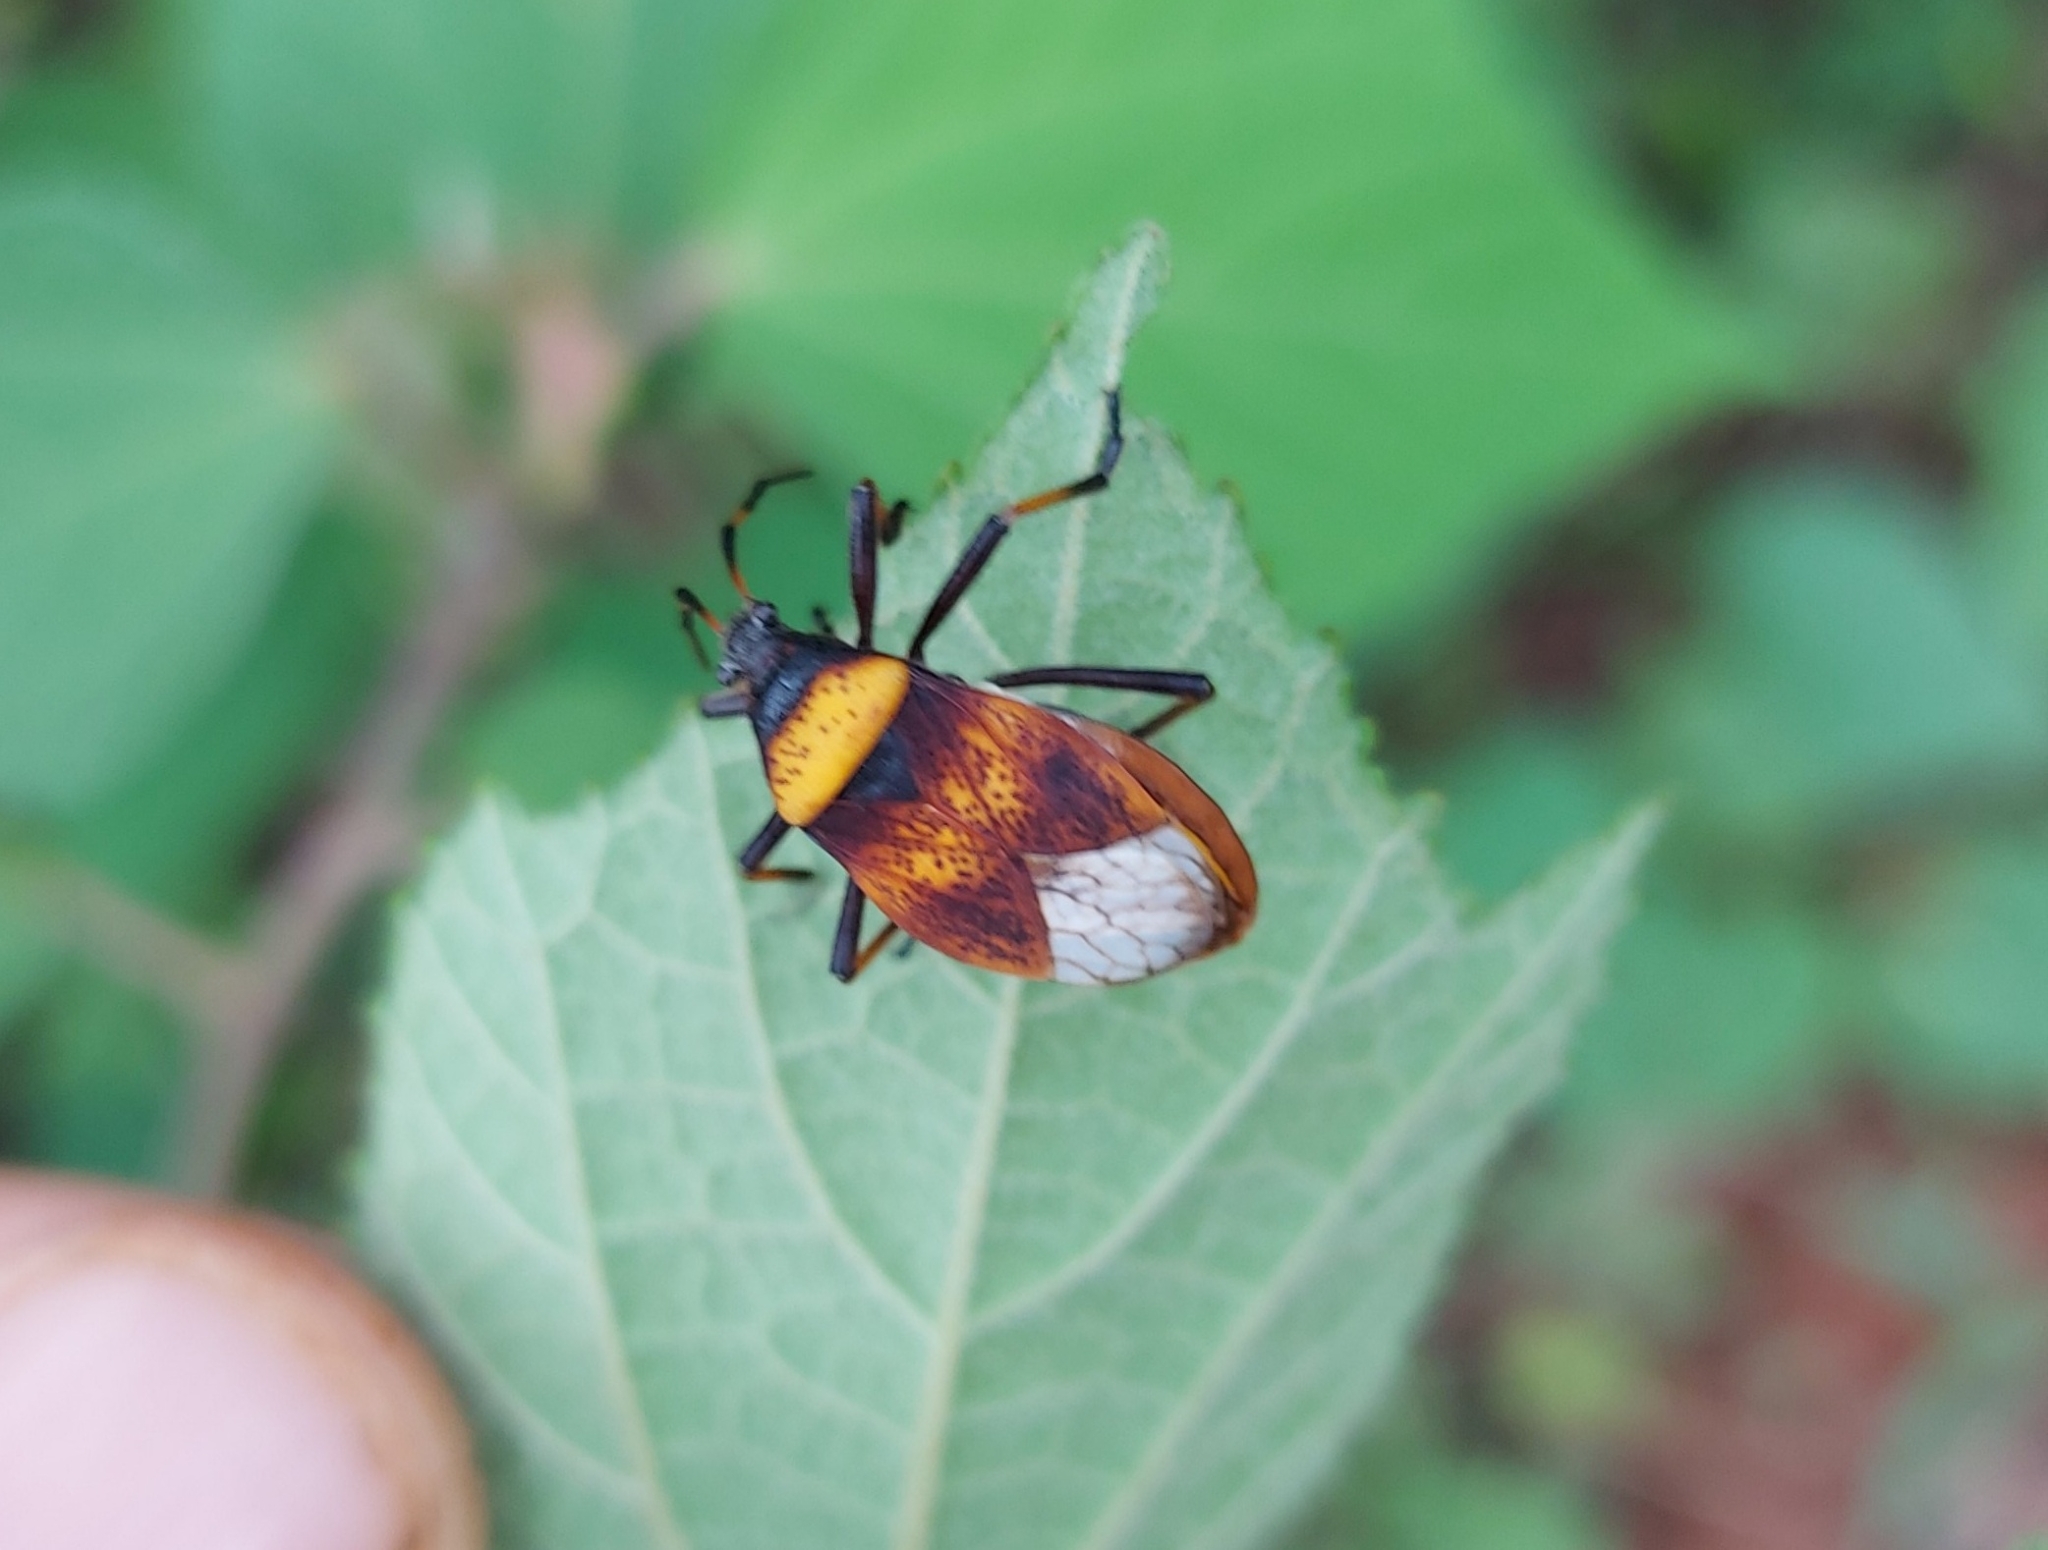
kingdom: Animalia
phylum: Arthropoda
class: Insecta
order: Hemiptera
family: Largidae
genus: Largus
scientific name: Largus humilis
